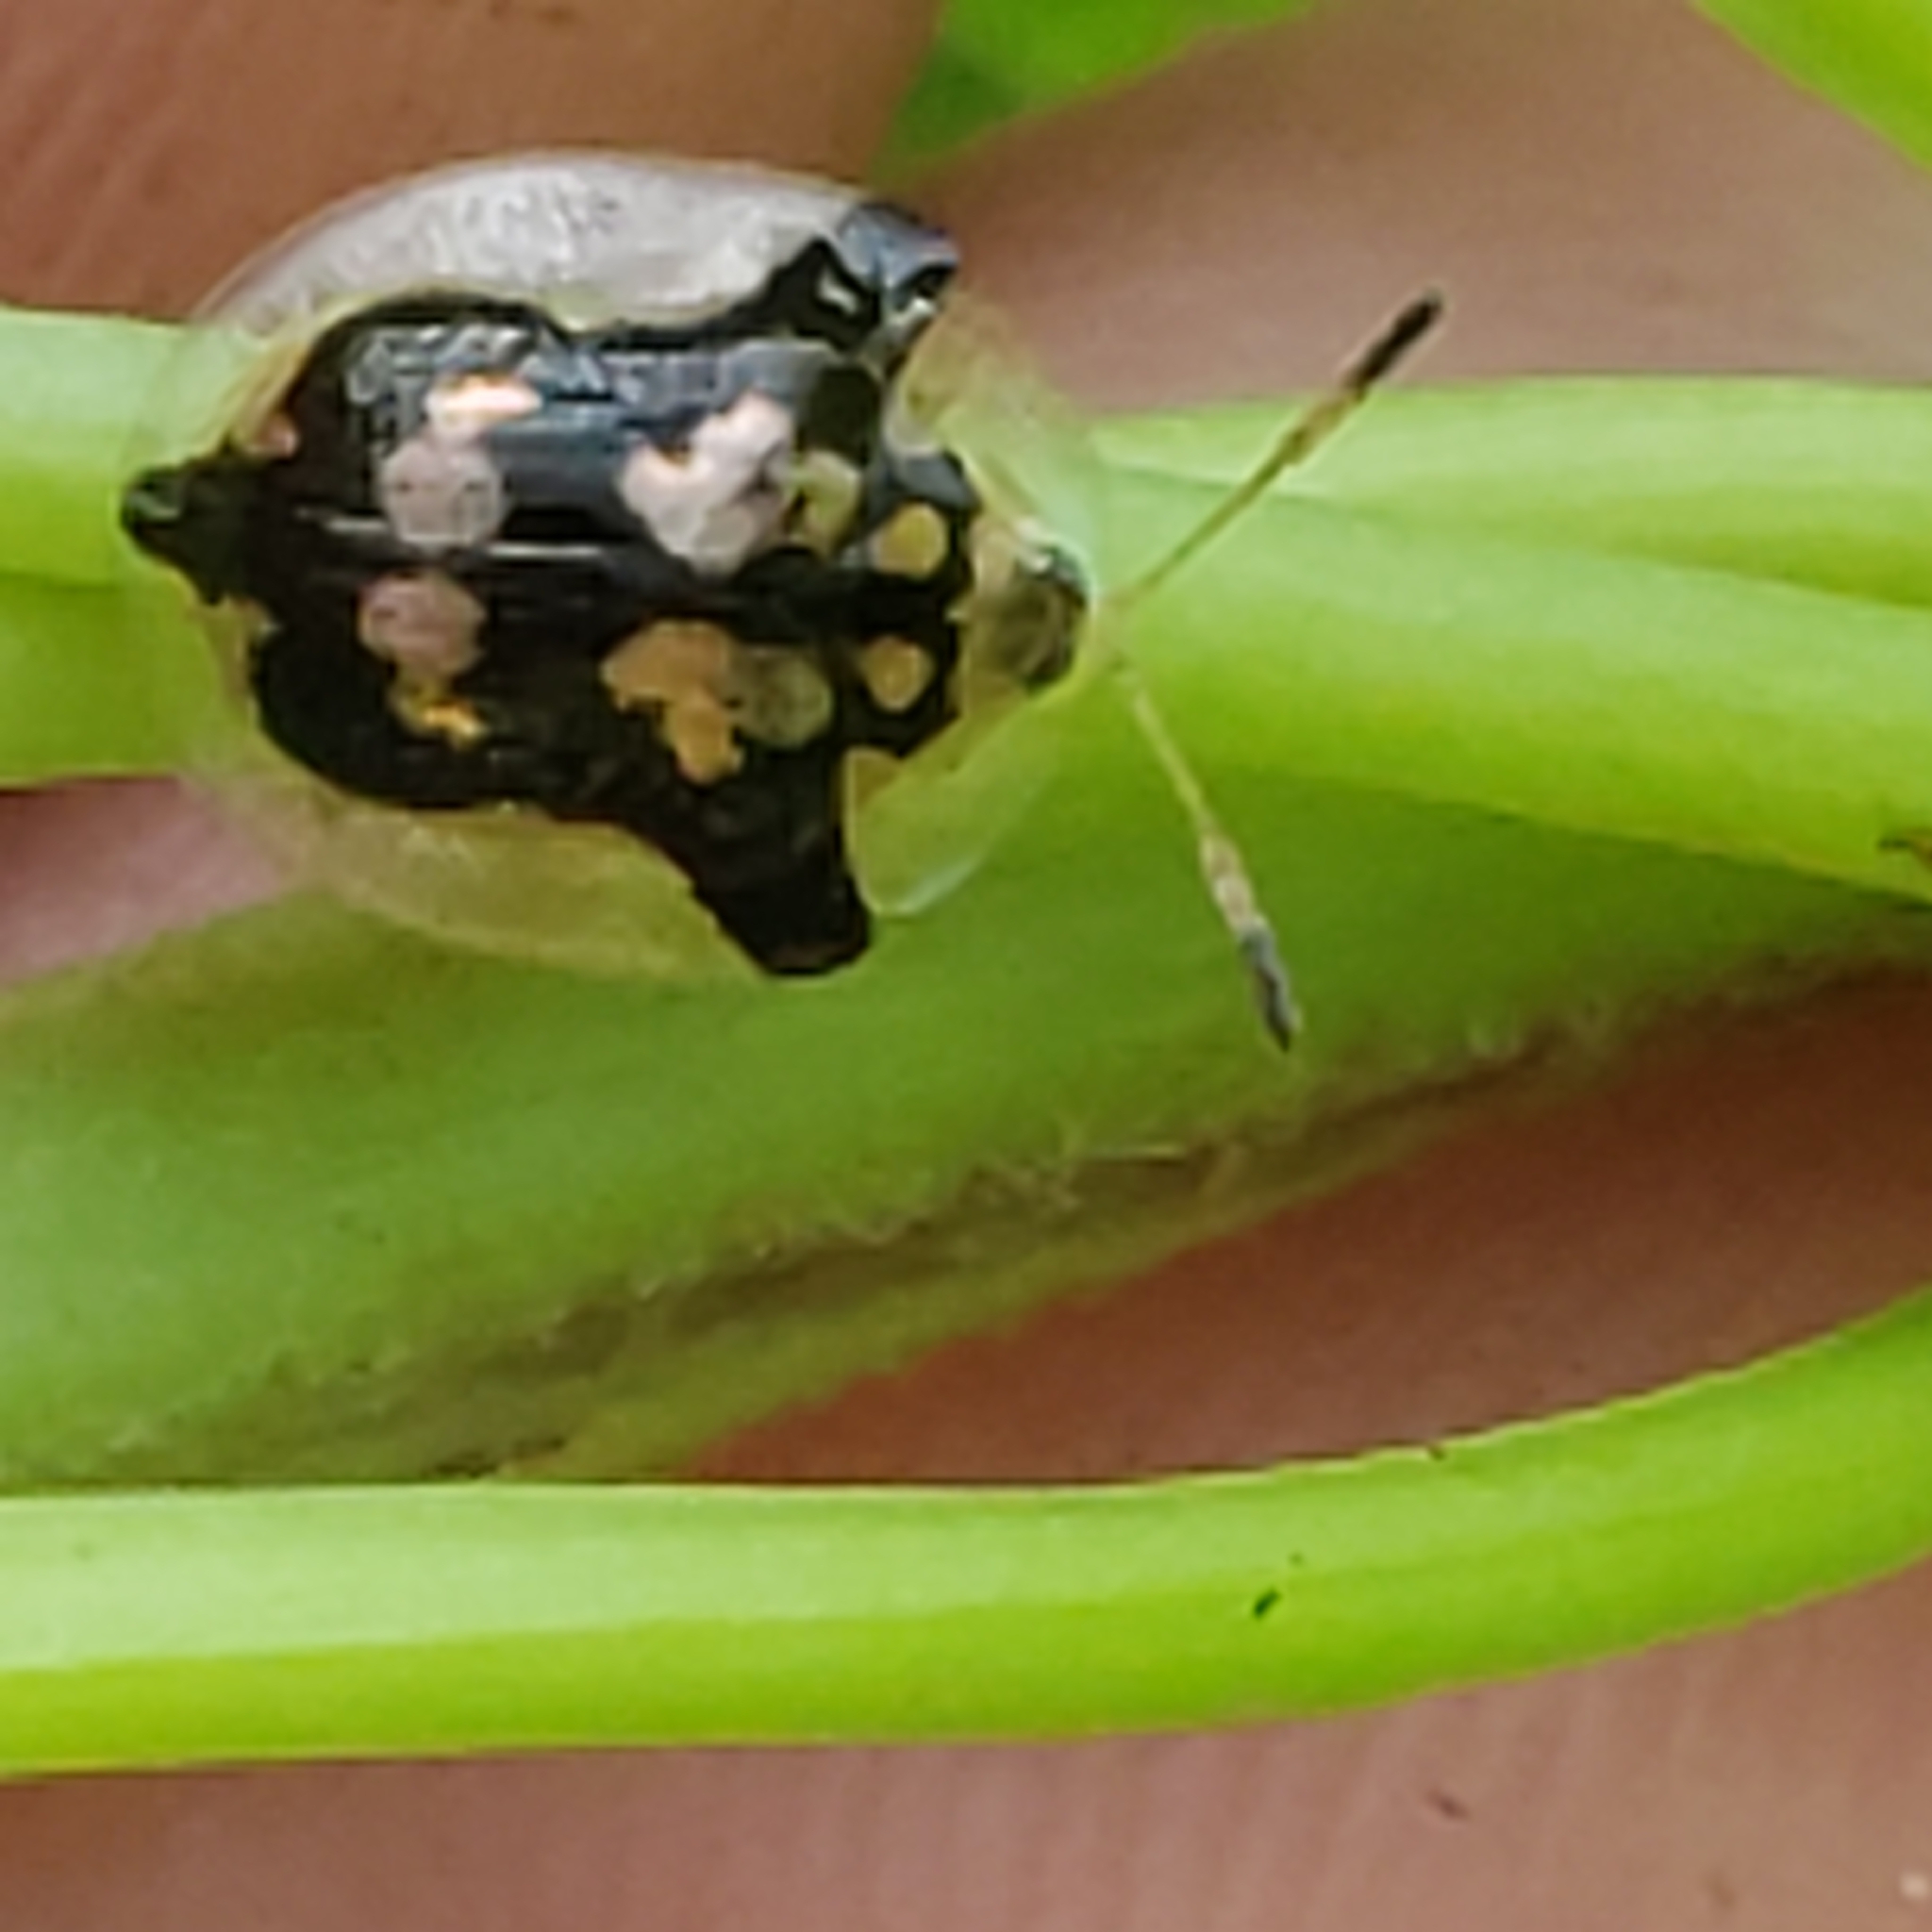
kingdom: Animalia
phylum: Arthropoda
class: Insecta
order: Coleoptera
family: Chrysomelidae
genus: Deloyala
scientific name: Deloyala guttata
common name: Mottled tortoise beetle
